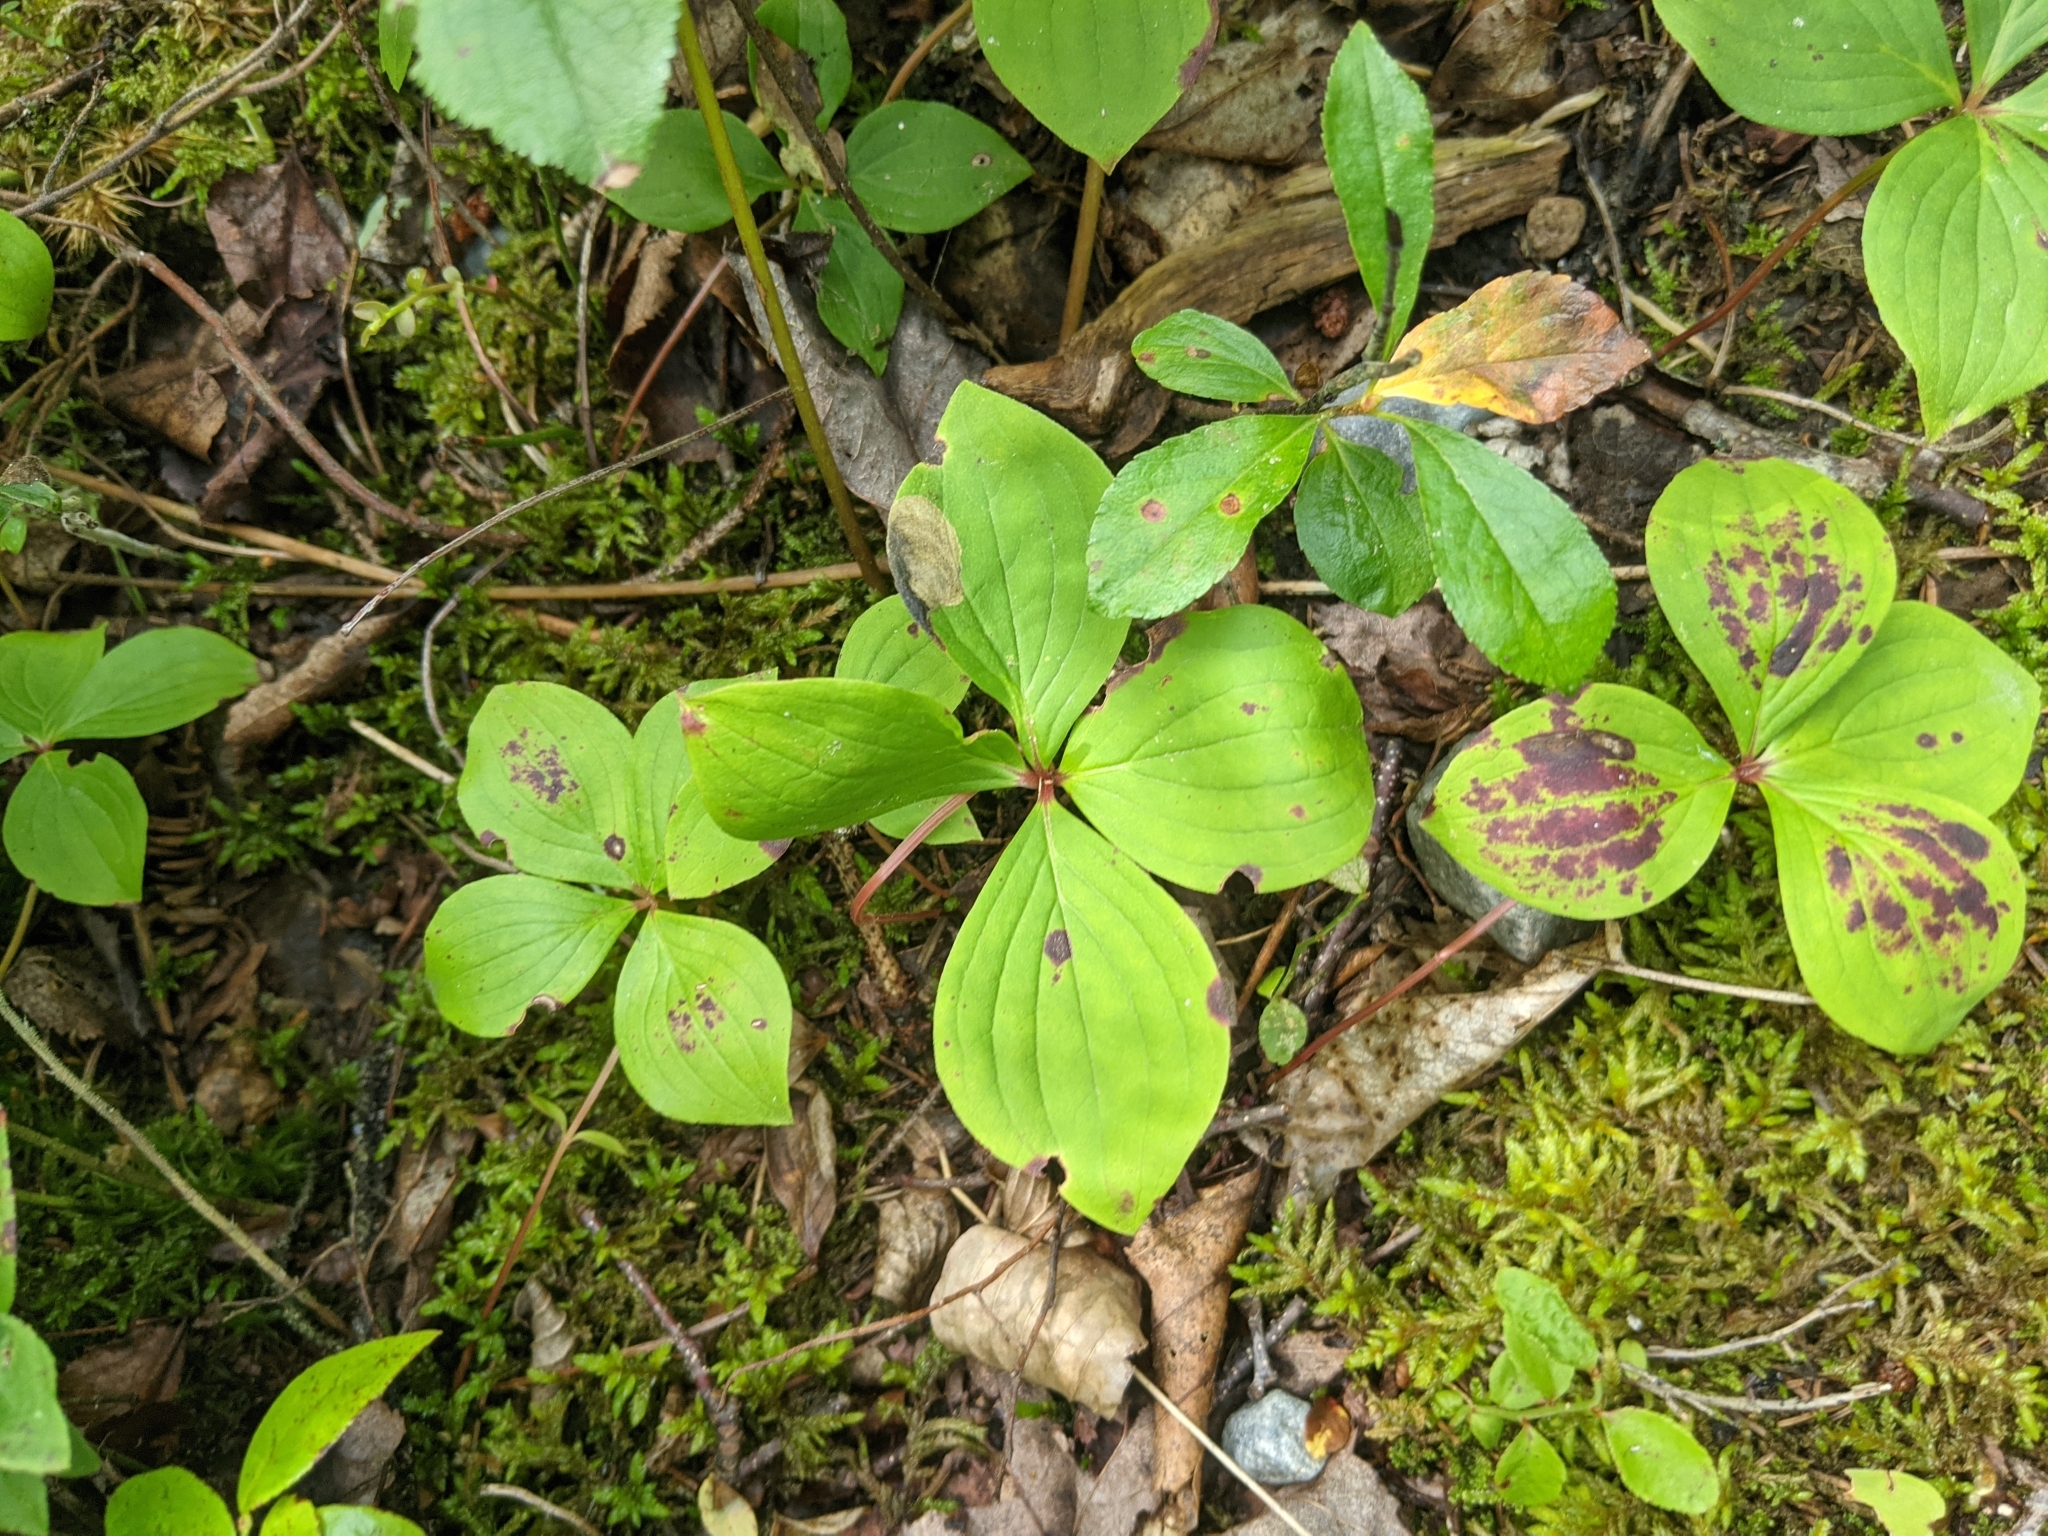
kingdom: Plantae
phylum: Tracheophyta
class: Magnoliopsida
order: Cornales
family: Cornaceae
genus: Cornus
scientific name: Cornus canadensis
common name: Creeping dogwood
